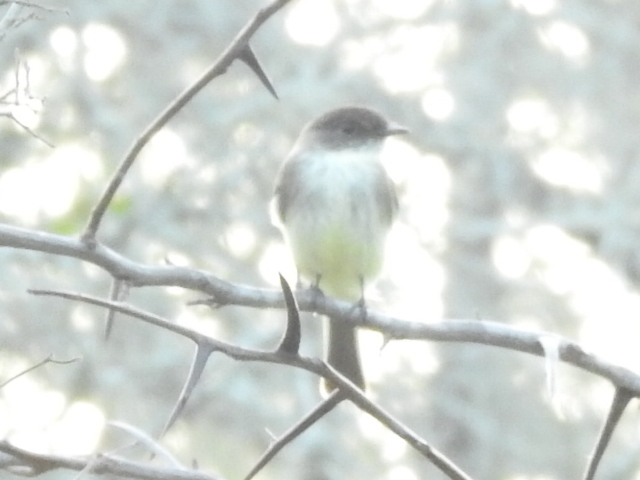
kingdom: Animalia
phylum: Chordata
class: Aves
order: Passeriformes
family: Tyrannidae
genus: Sayornis
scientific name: Sayornis phoebe
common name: Eastern phoebe
